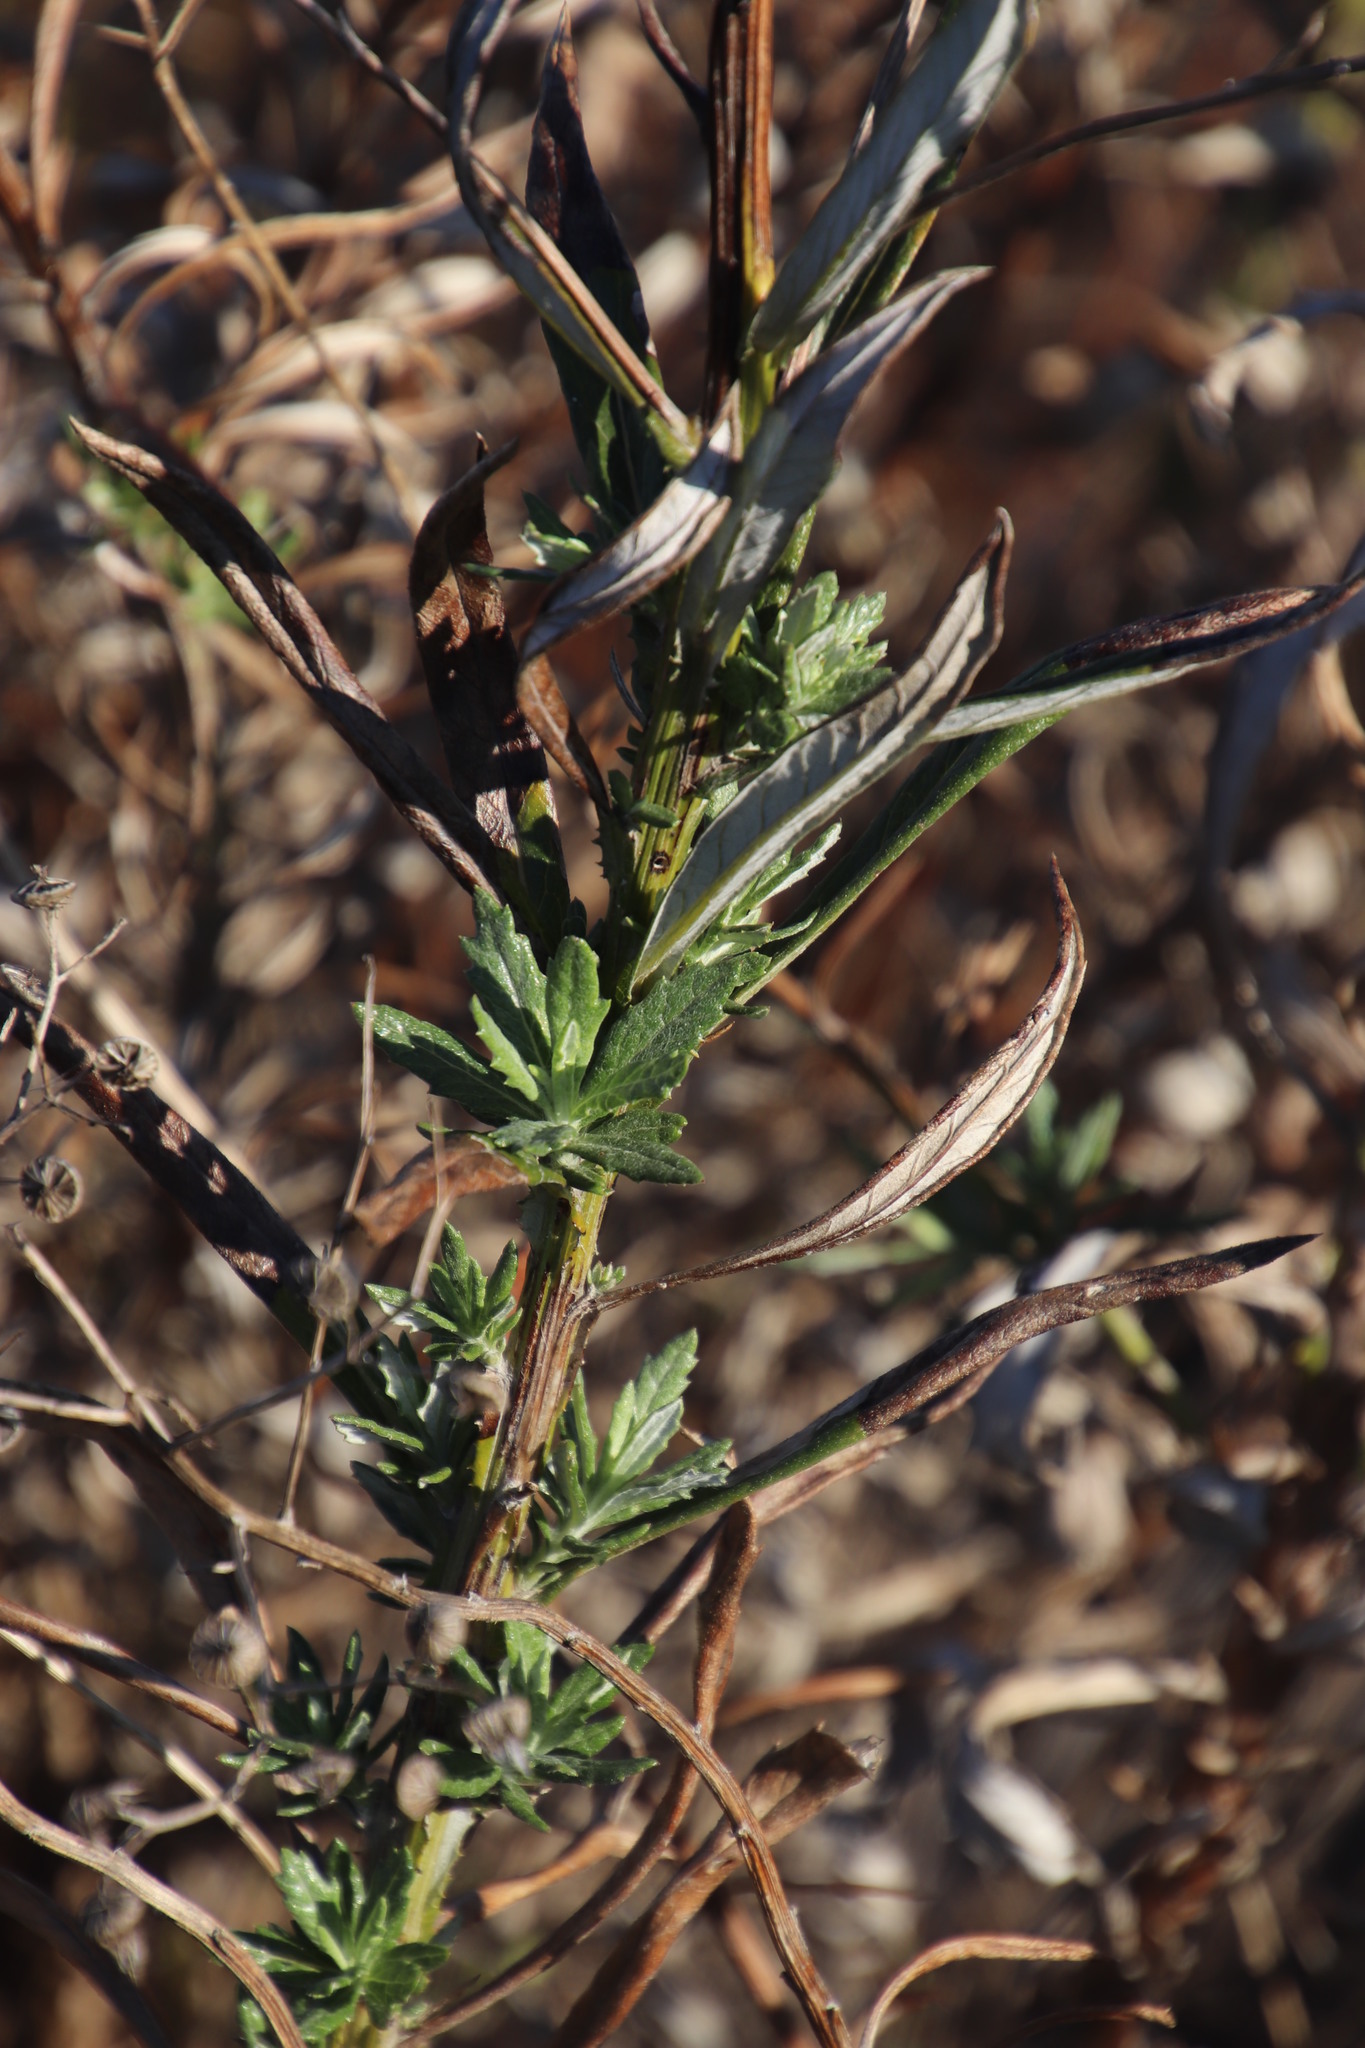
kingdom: Plantae
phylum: Tracheophyta
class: Magnoliopsida
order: Asterales
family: Asteraceae
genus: Senecio
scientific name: Senecio pterophorus
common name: Shoddy ragwort
